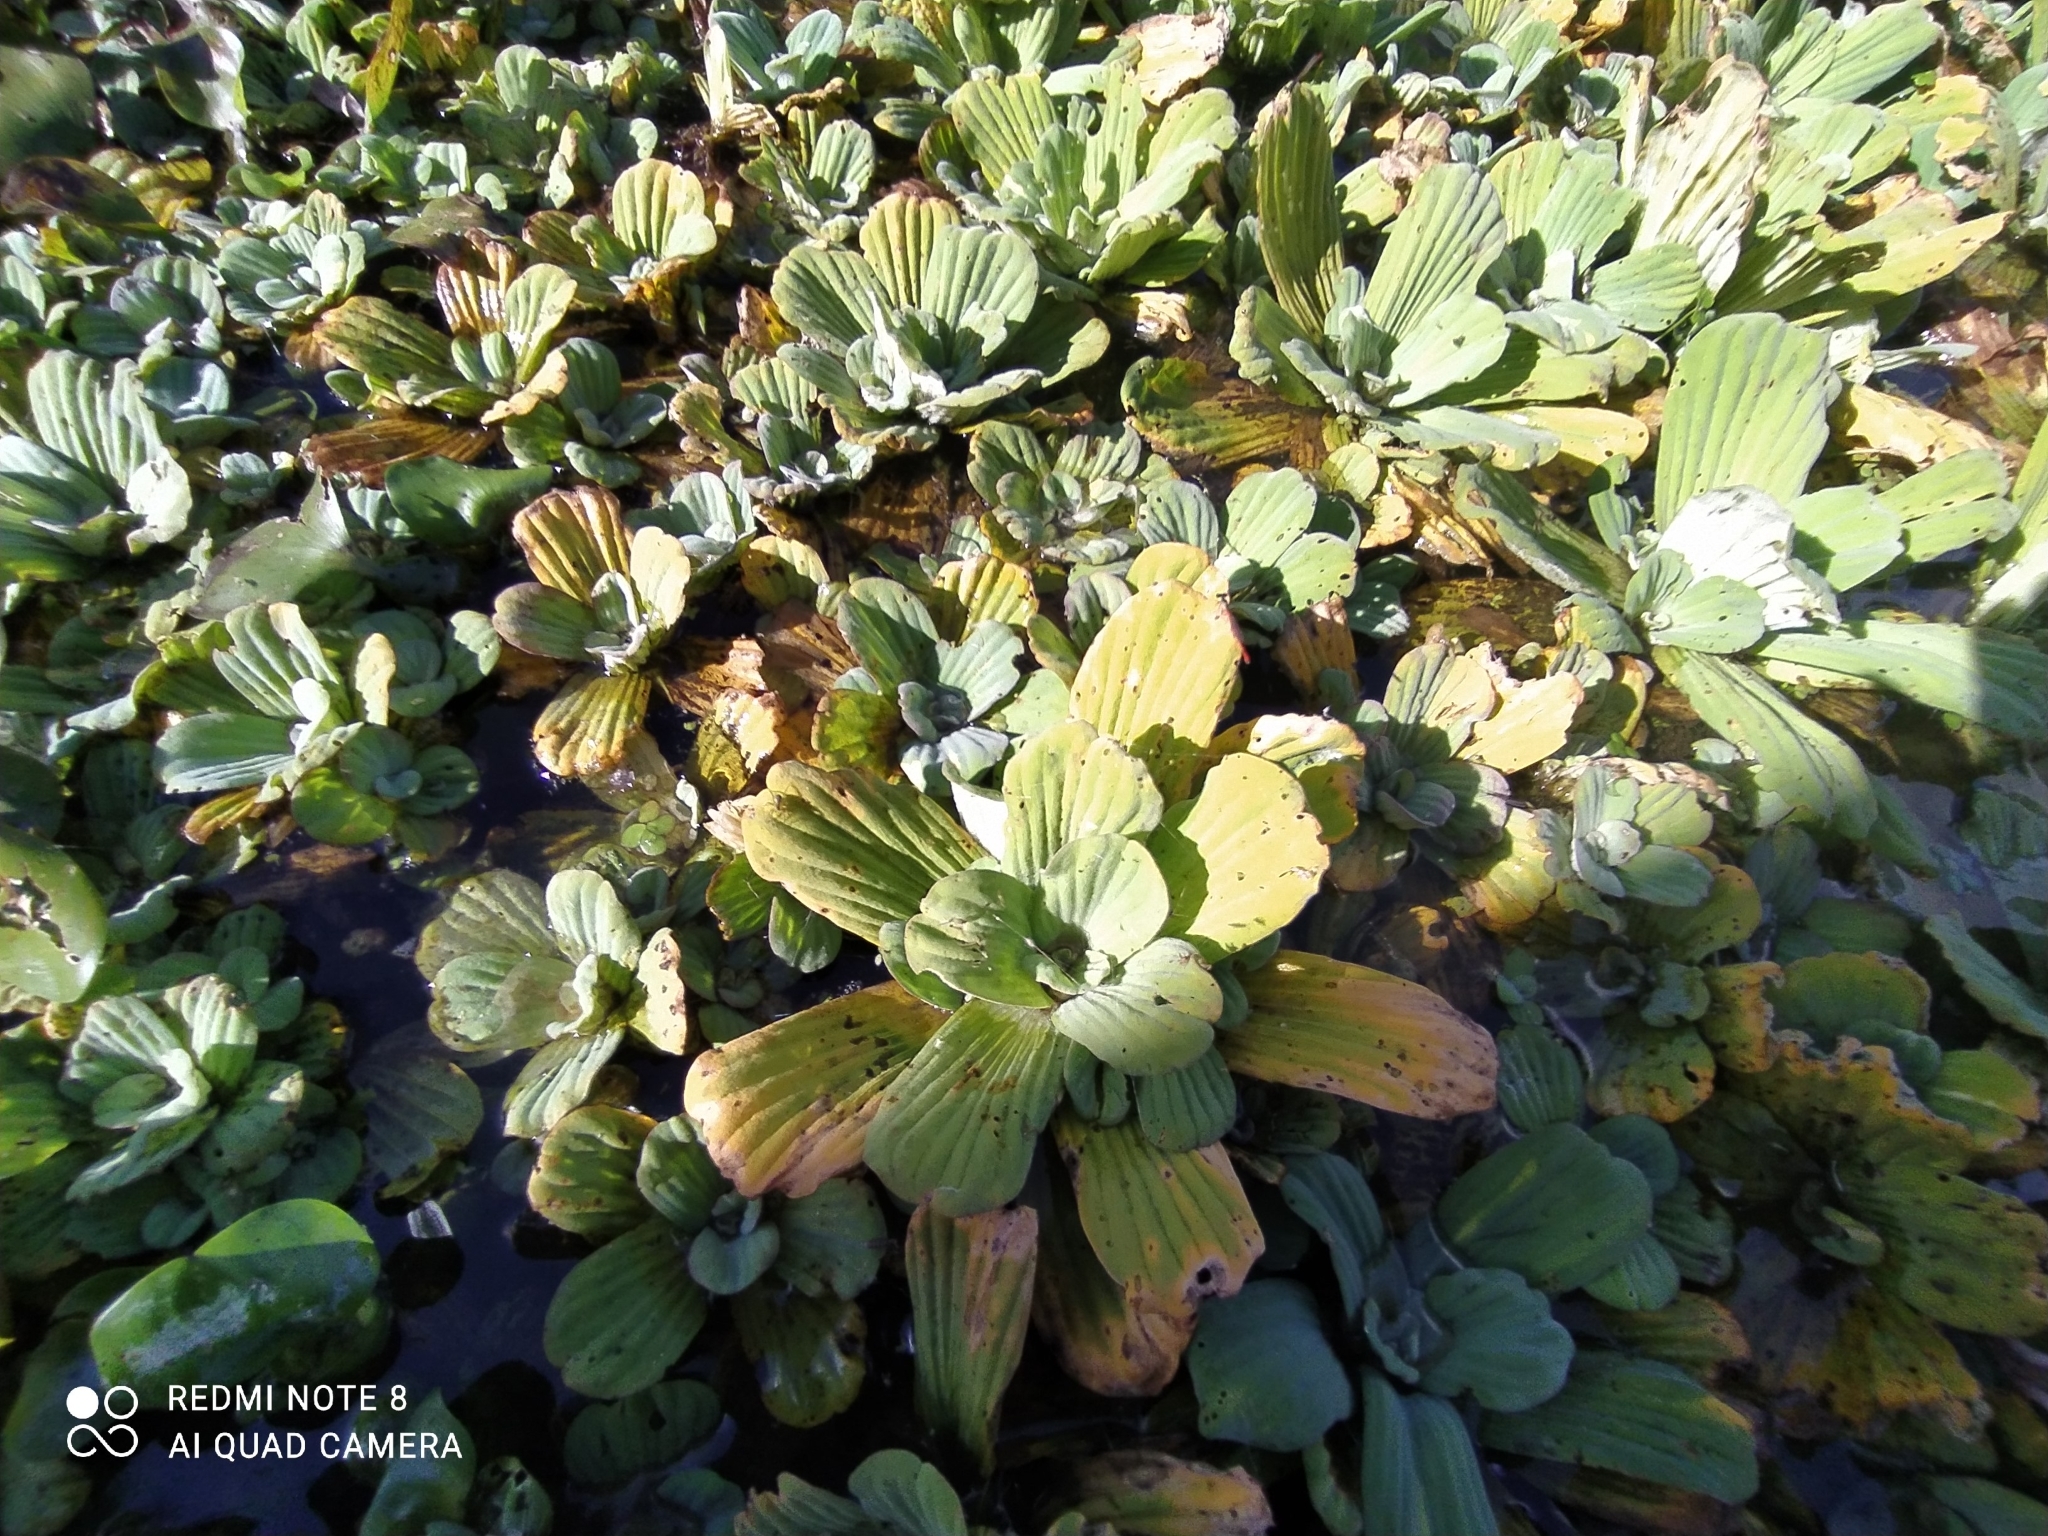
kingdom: Plantae
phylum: Tracheophyta
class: Liliopsida
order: Alismatales
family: Araceae
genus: Pistia
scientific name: Pistia stratiotes
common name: Water lettuce
